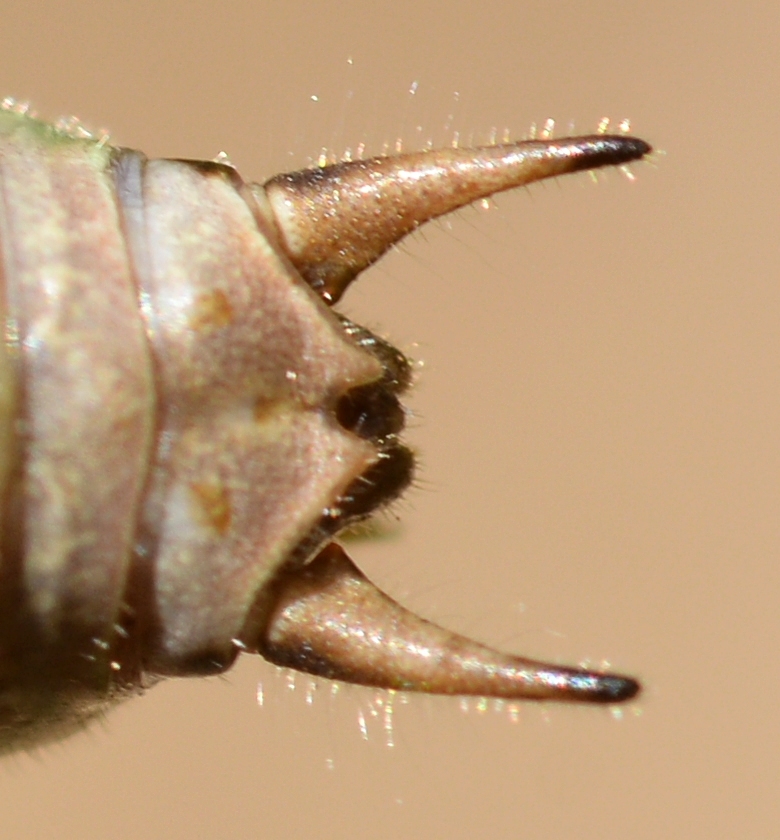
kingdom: Animalia
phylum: Arthropoda
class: Insecta
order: Orthoptera
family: Tettigoniidae
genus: Eupholidoptera
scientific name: Eupholidoptera chabrieri
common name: Chabrier's marbled bush-cricket
